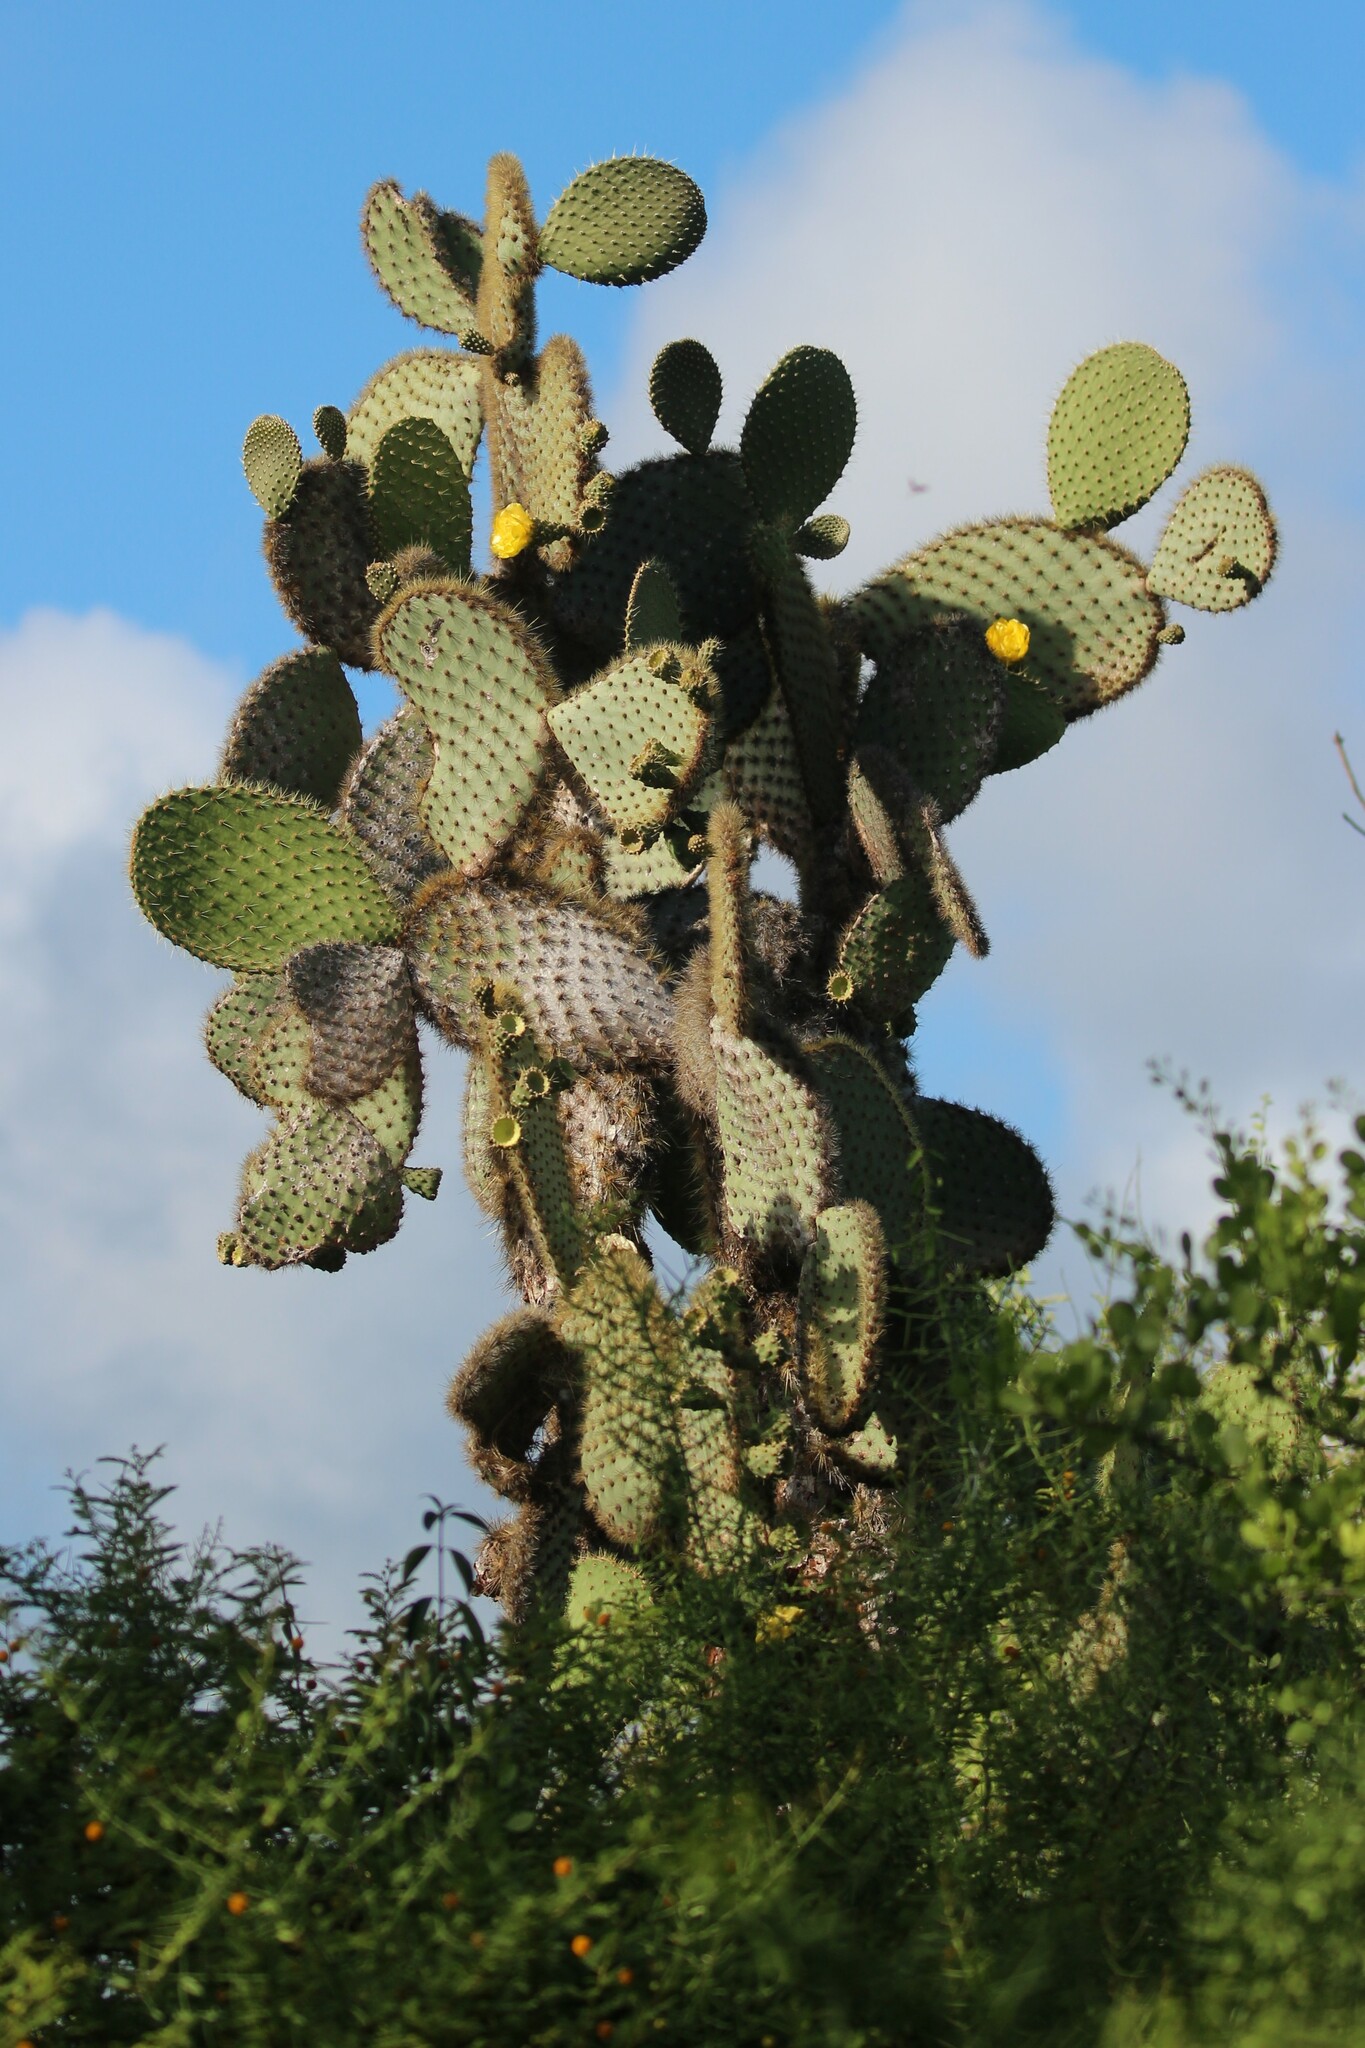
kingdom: Plantae
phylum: Tracheophyta
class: Magnoliopsida
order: Caryophyllales
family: Cactaceae
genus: Opuntia
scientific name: Opuntia galapageia
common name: Galápagos prickly pear
